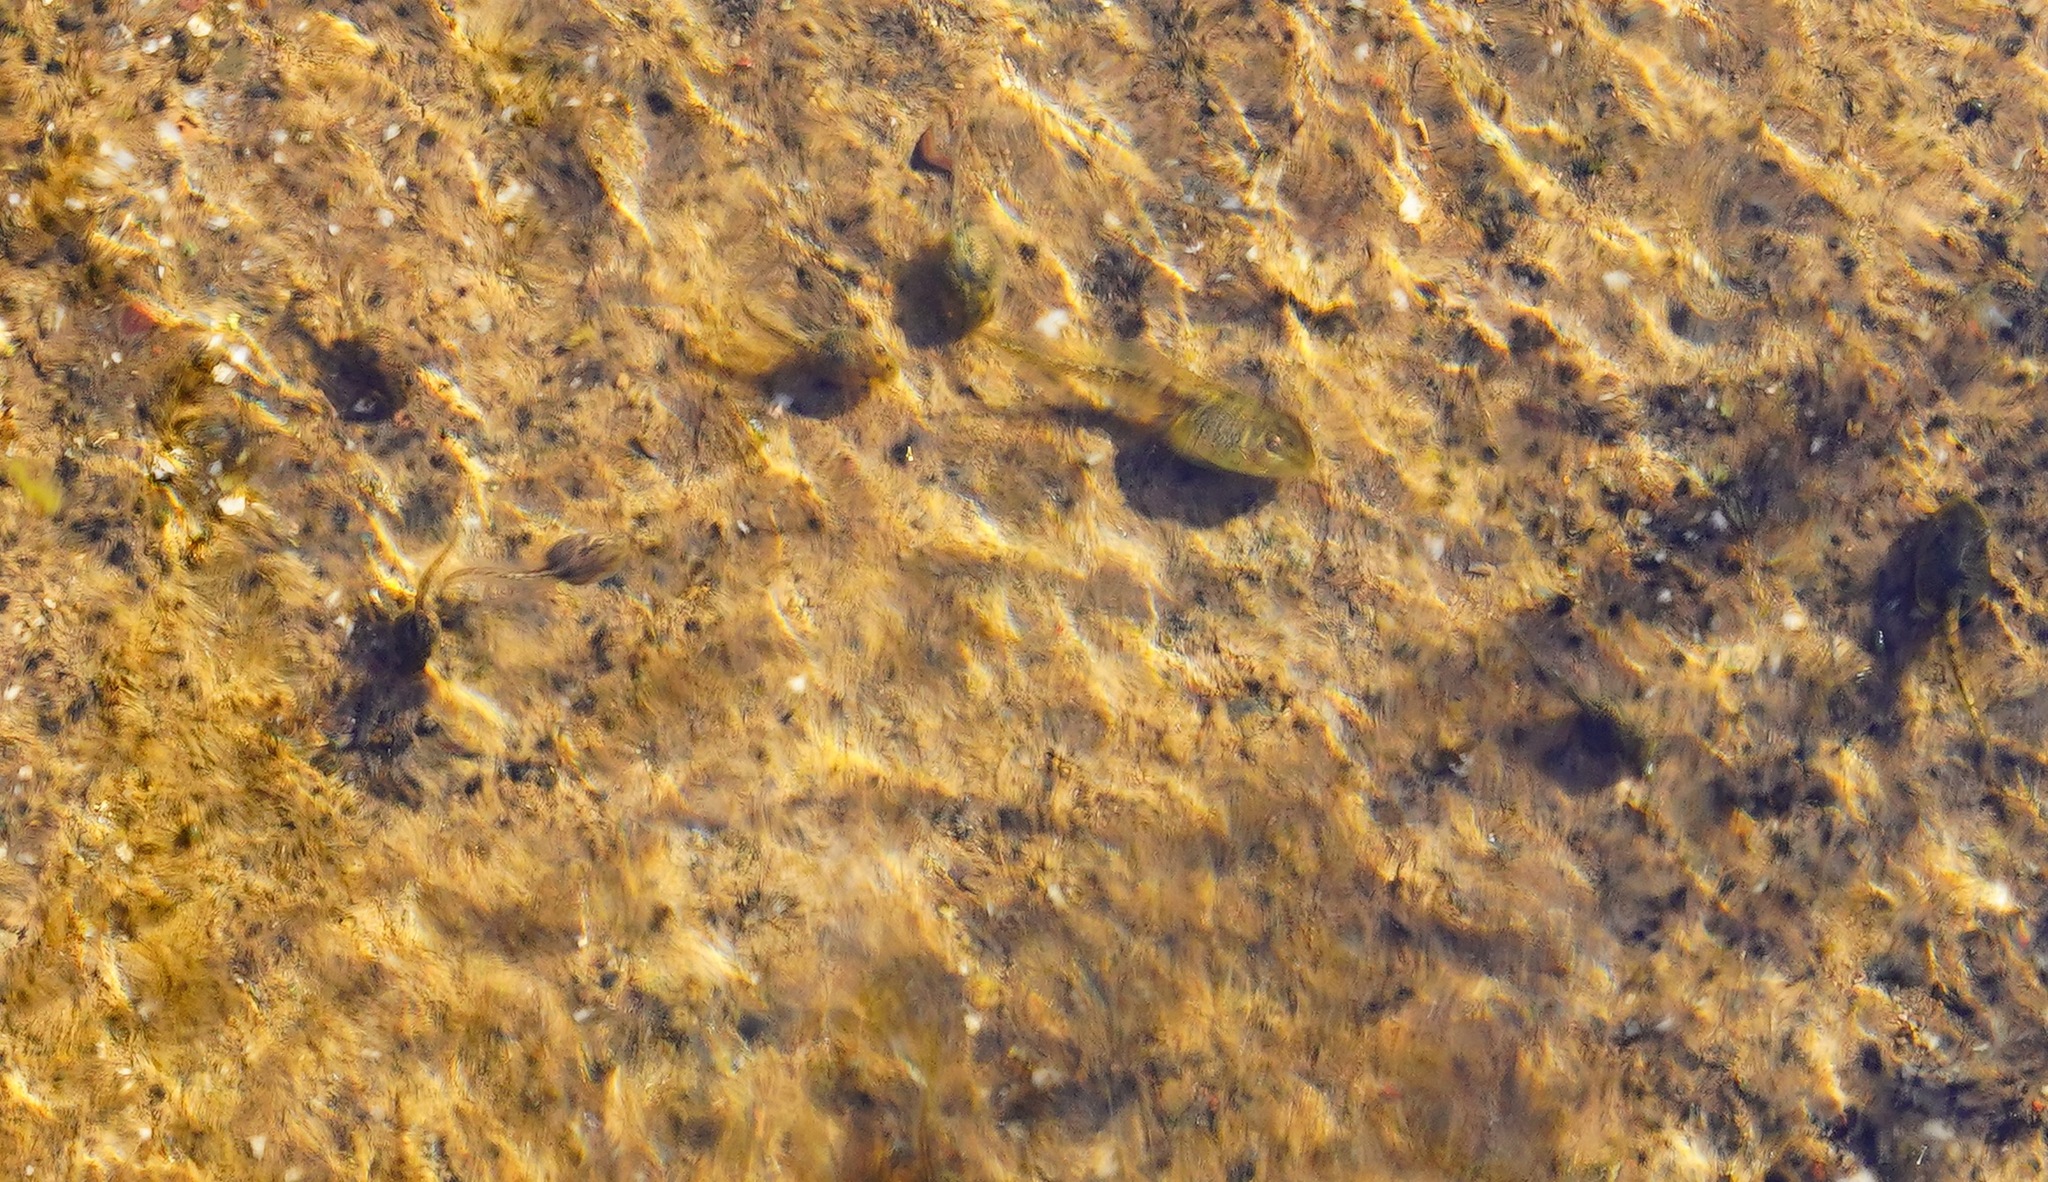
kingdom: Animalia
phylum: Chordata
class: Amphibia
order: Anura
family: Hylidae
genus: Pseudacris
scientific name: Pseudacris regilla
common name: Pacific chorus frog
